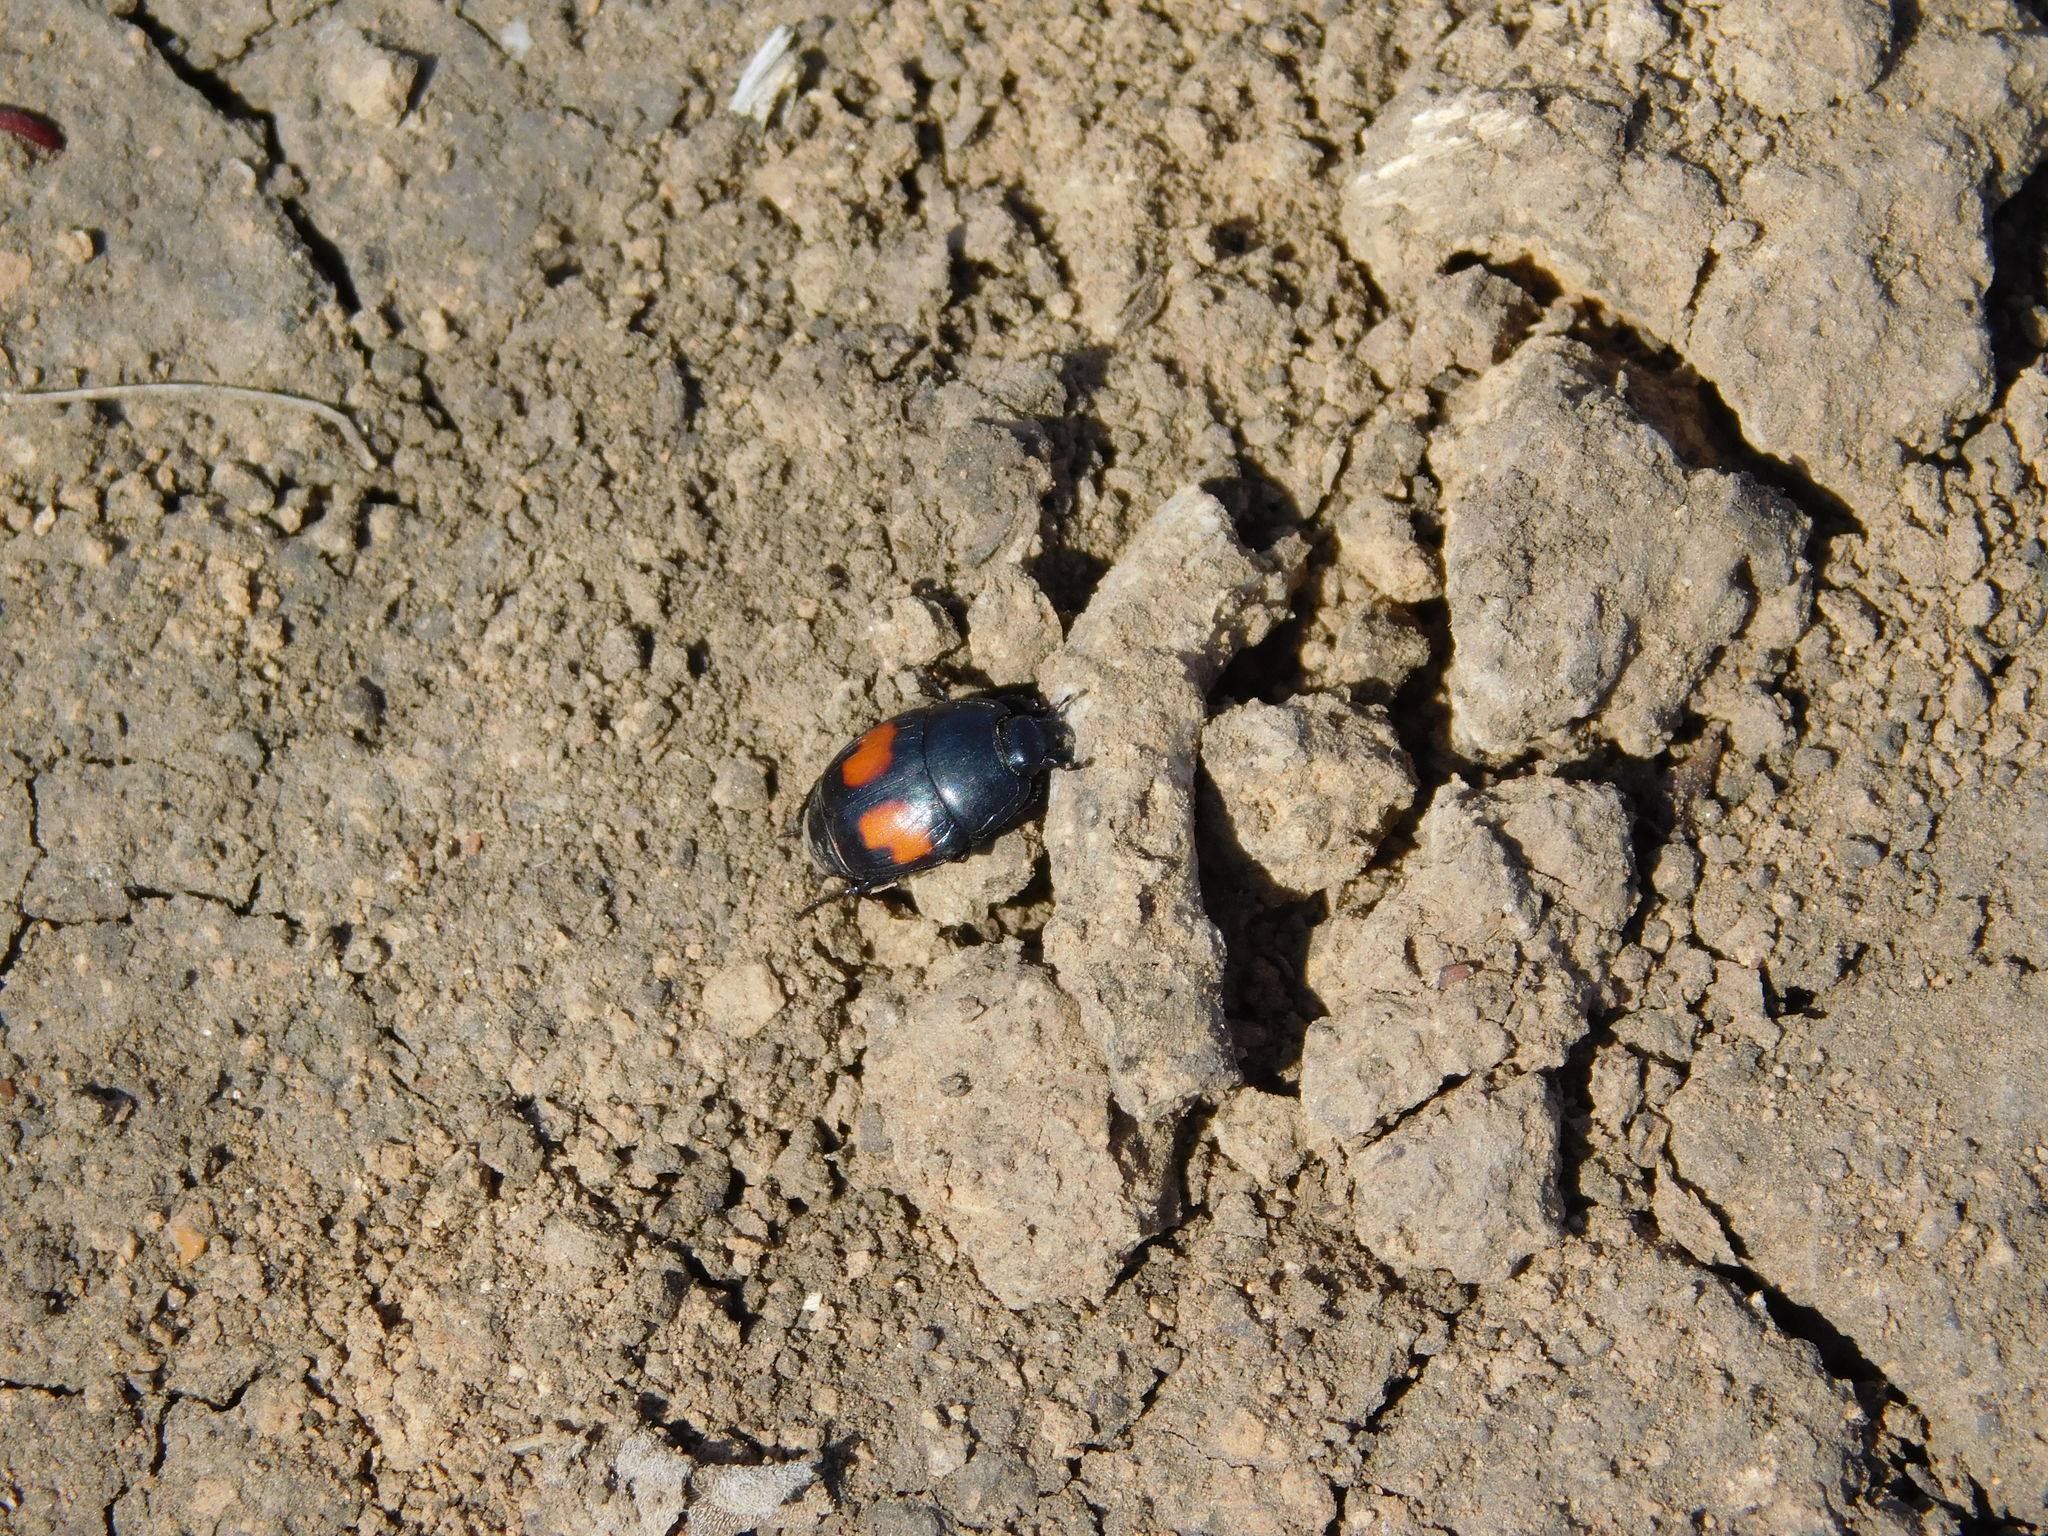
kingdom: Animalia
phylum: Arthropoda
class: Insecta
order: Coleoptera
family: Histeridae
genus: Margarinotus
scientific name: Margarinotus bipustulatus
